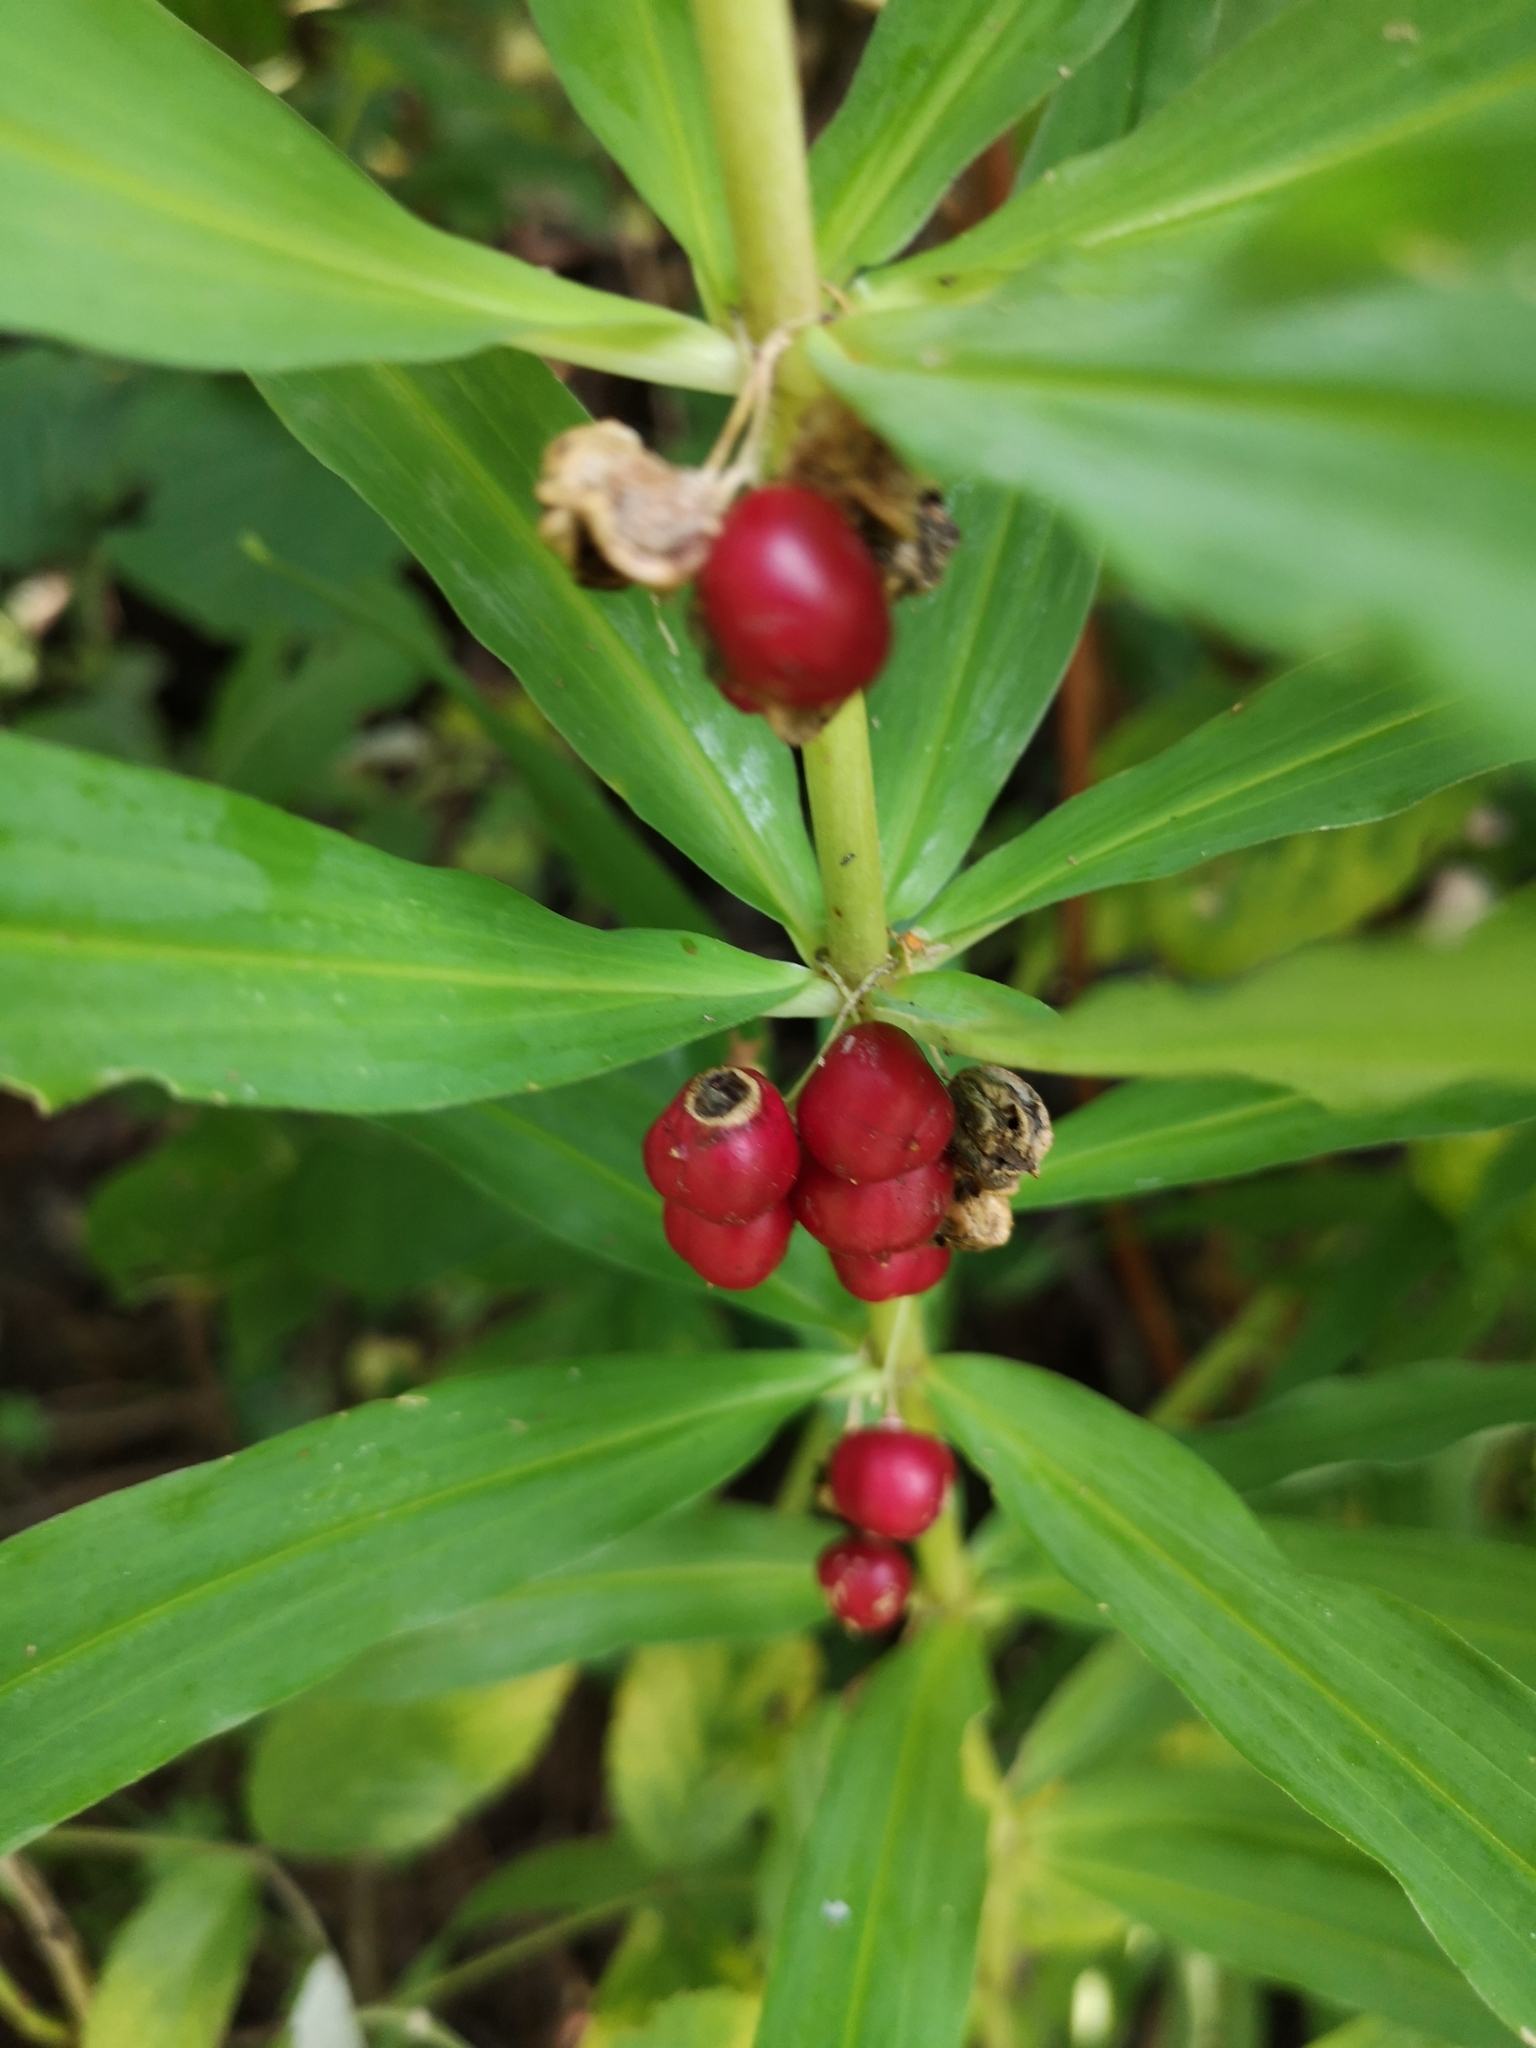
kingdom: Plantae
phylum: Tracheophyta
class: Liliopsida
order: Asparagales
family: Asparagaceae
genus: Polygonatum
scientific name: Polygonatum verticillatum
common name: Whorled solomon's-seal
